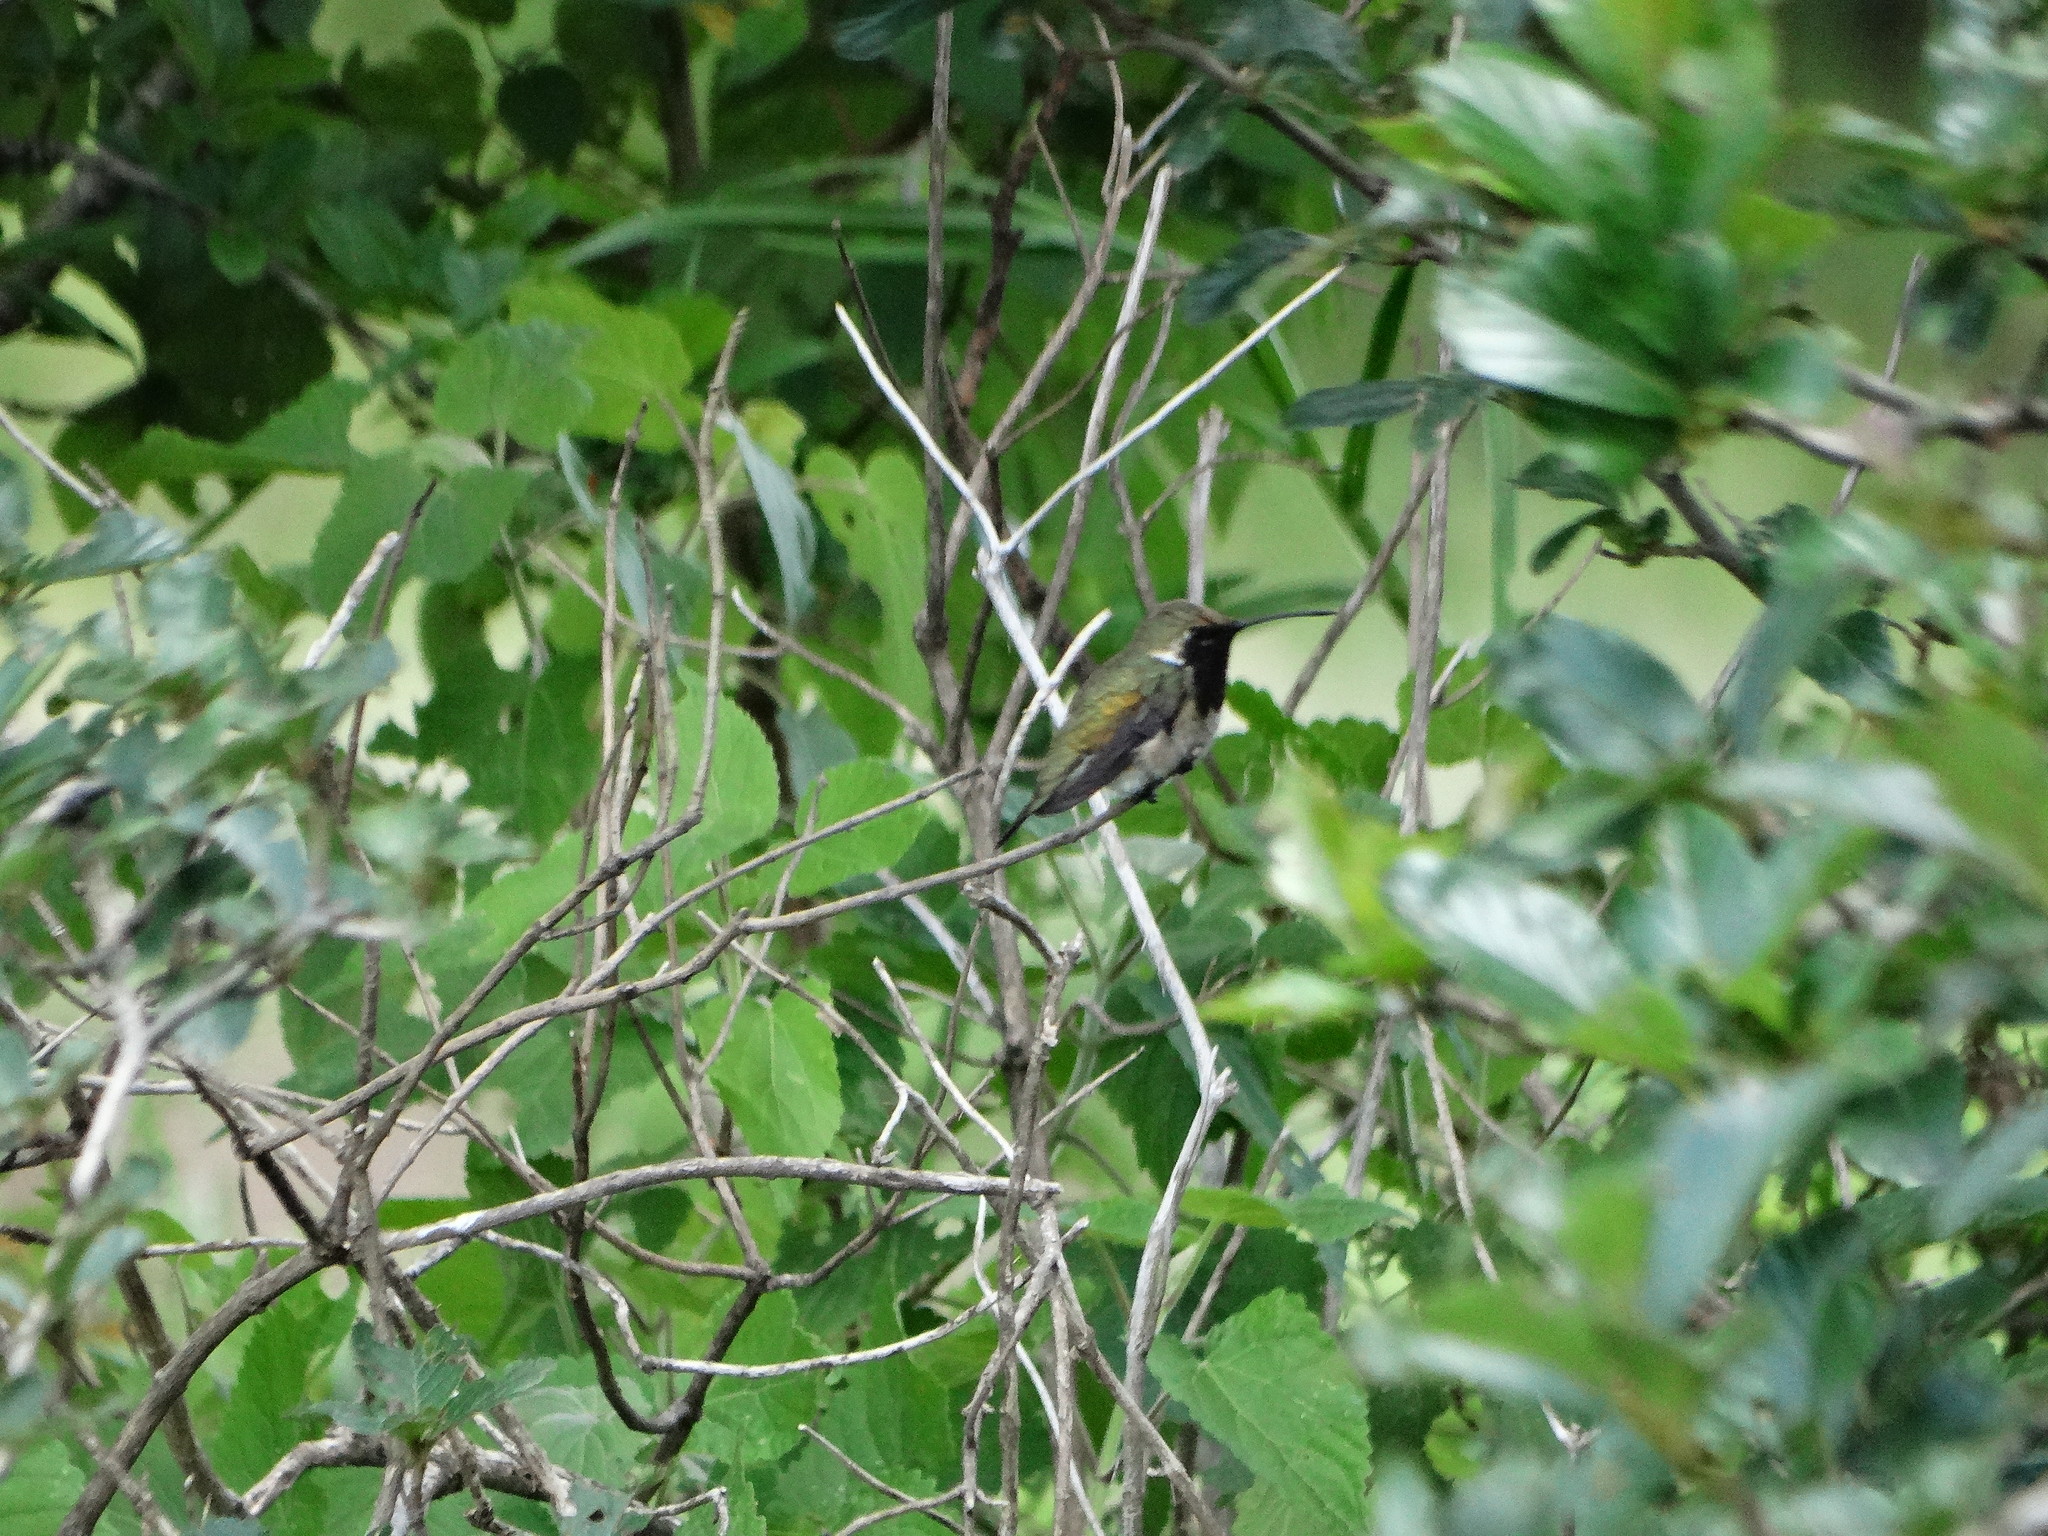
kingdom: Animalia
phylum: Chordata
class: Aves
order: Apodiformes
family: Trochilidae
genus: Calothorax
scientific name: Calothorax lucifer
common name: Lucifer sheartail
